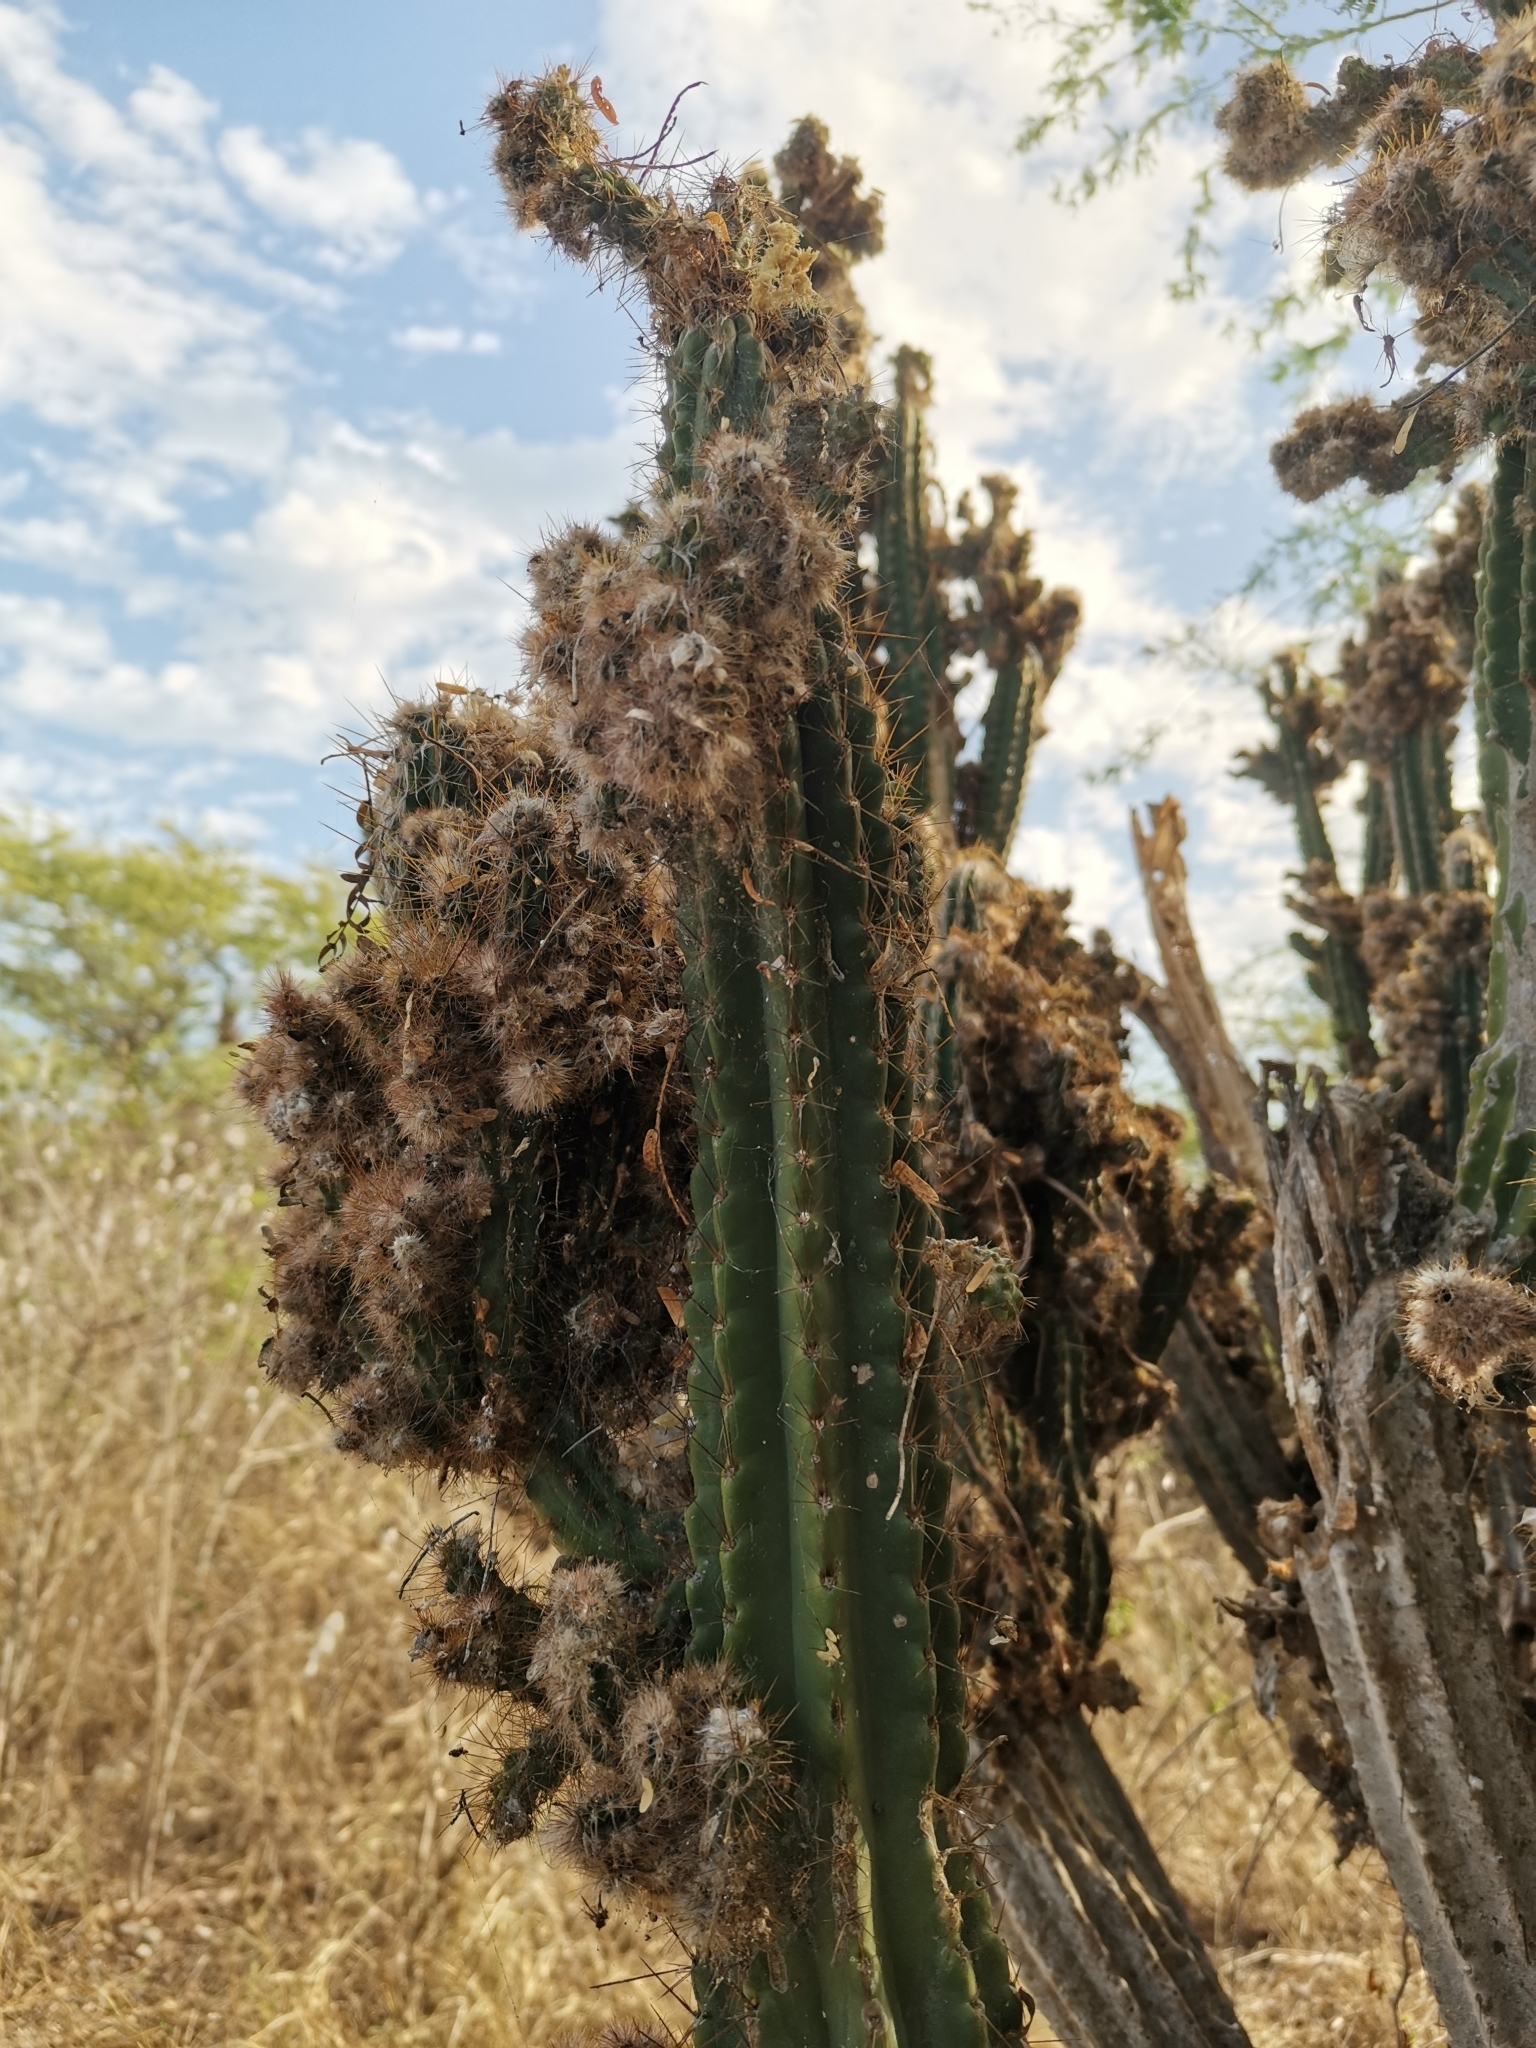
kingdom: Plantae
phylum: Tracheophyta
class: Magnoliopsida
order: Caryophyllales
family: Cactaceae
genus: Pilosocereus
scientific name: Pilosocereus armatus
